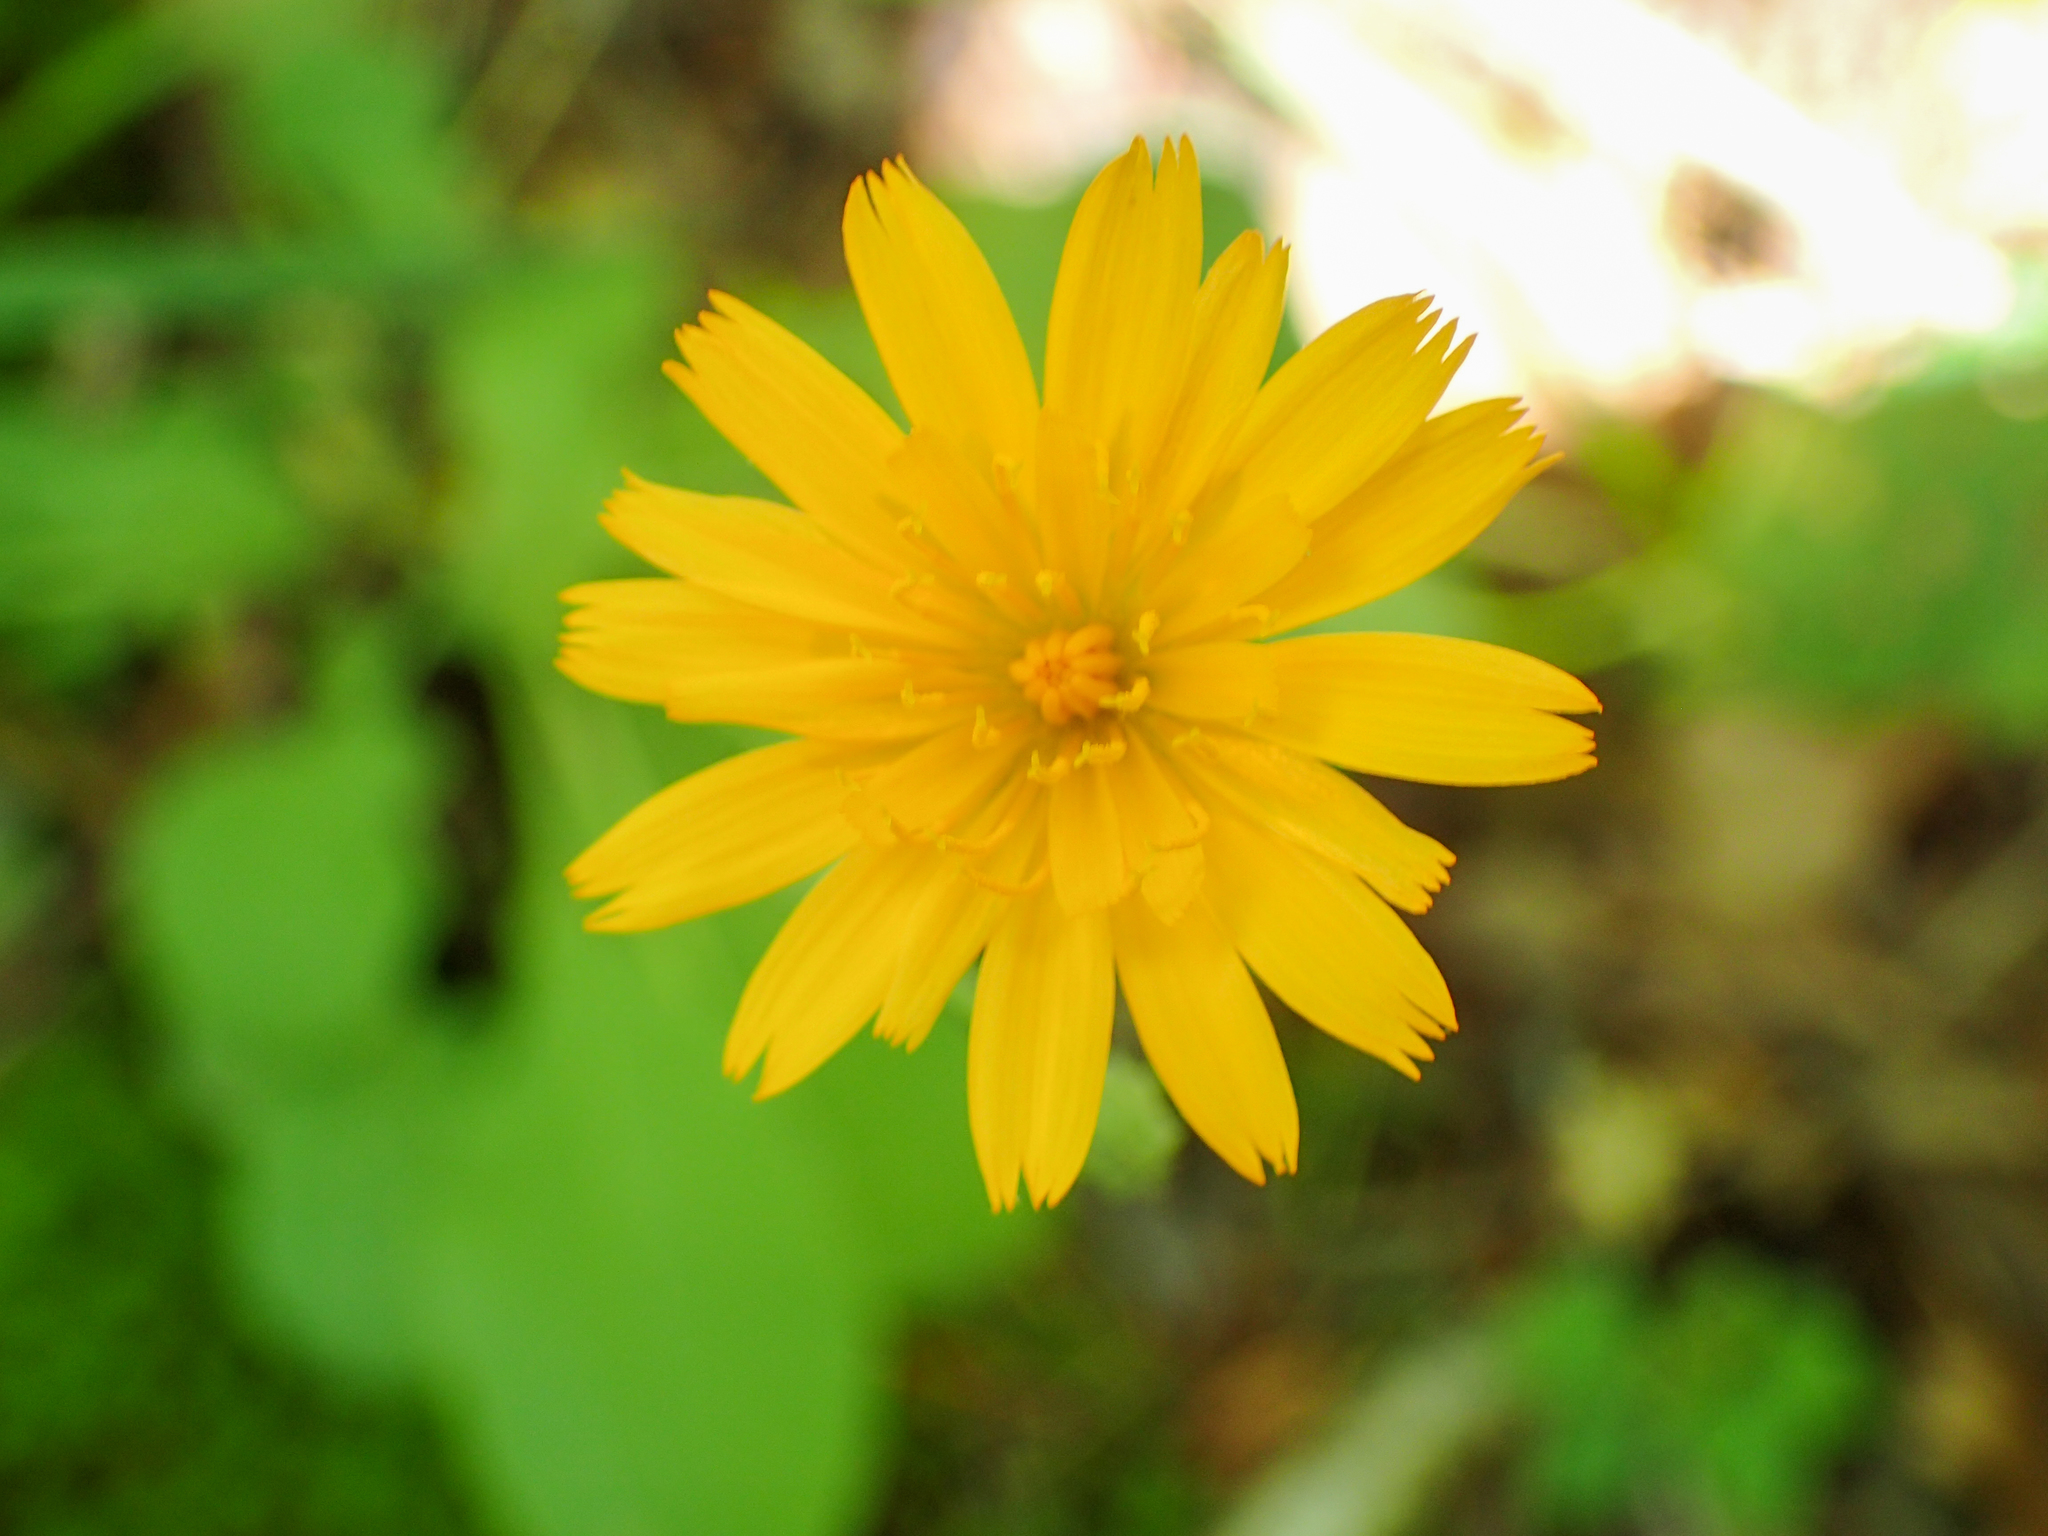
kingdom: Plantae
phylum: Tracheophyta
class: Magnoliopsida
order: Asterales
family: Asteraceae
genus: Krigia
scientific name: Krigia biflora
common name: Orange dwarf-dandelion
